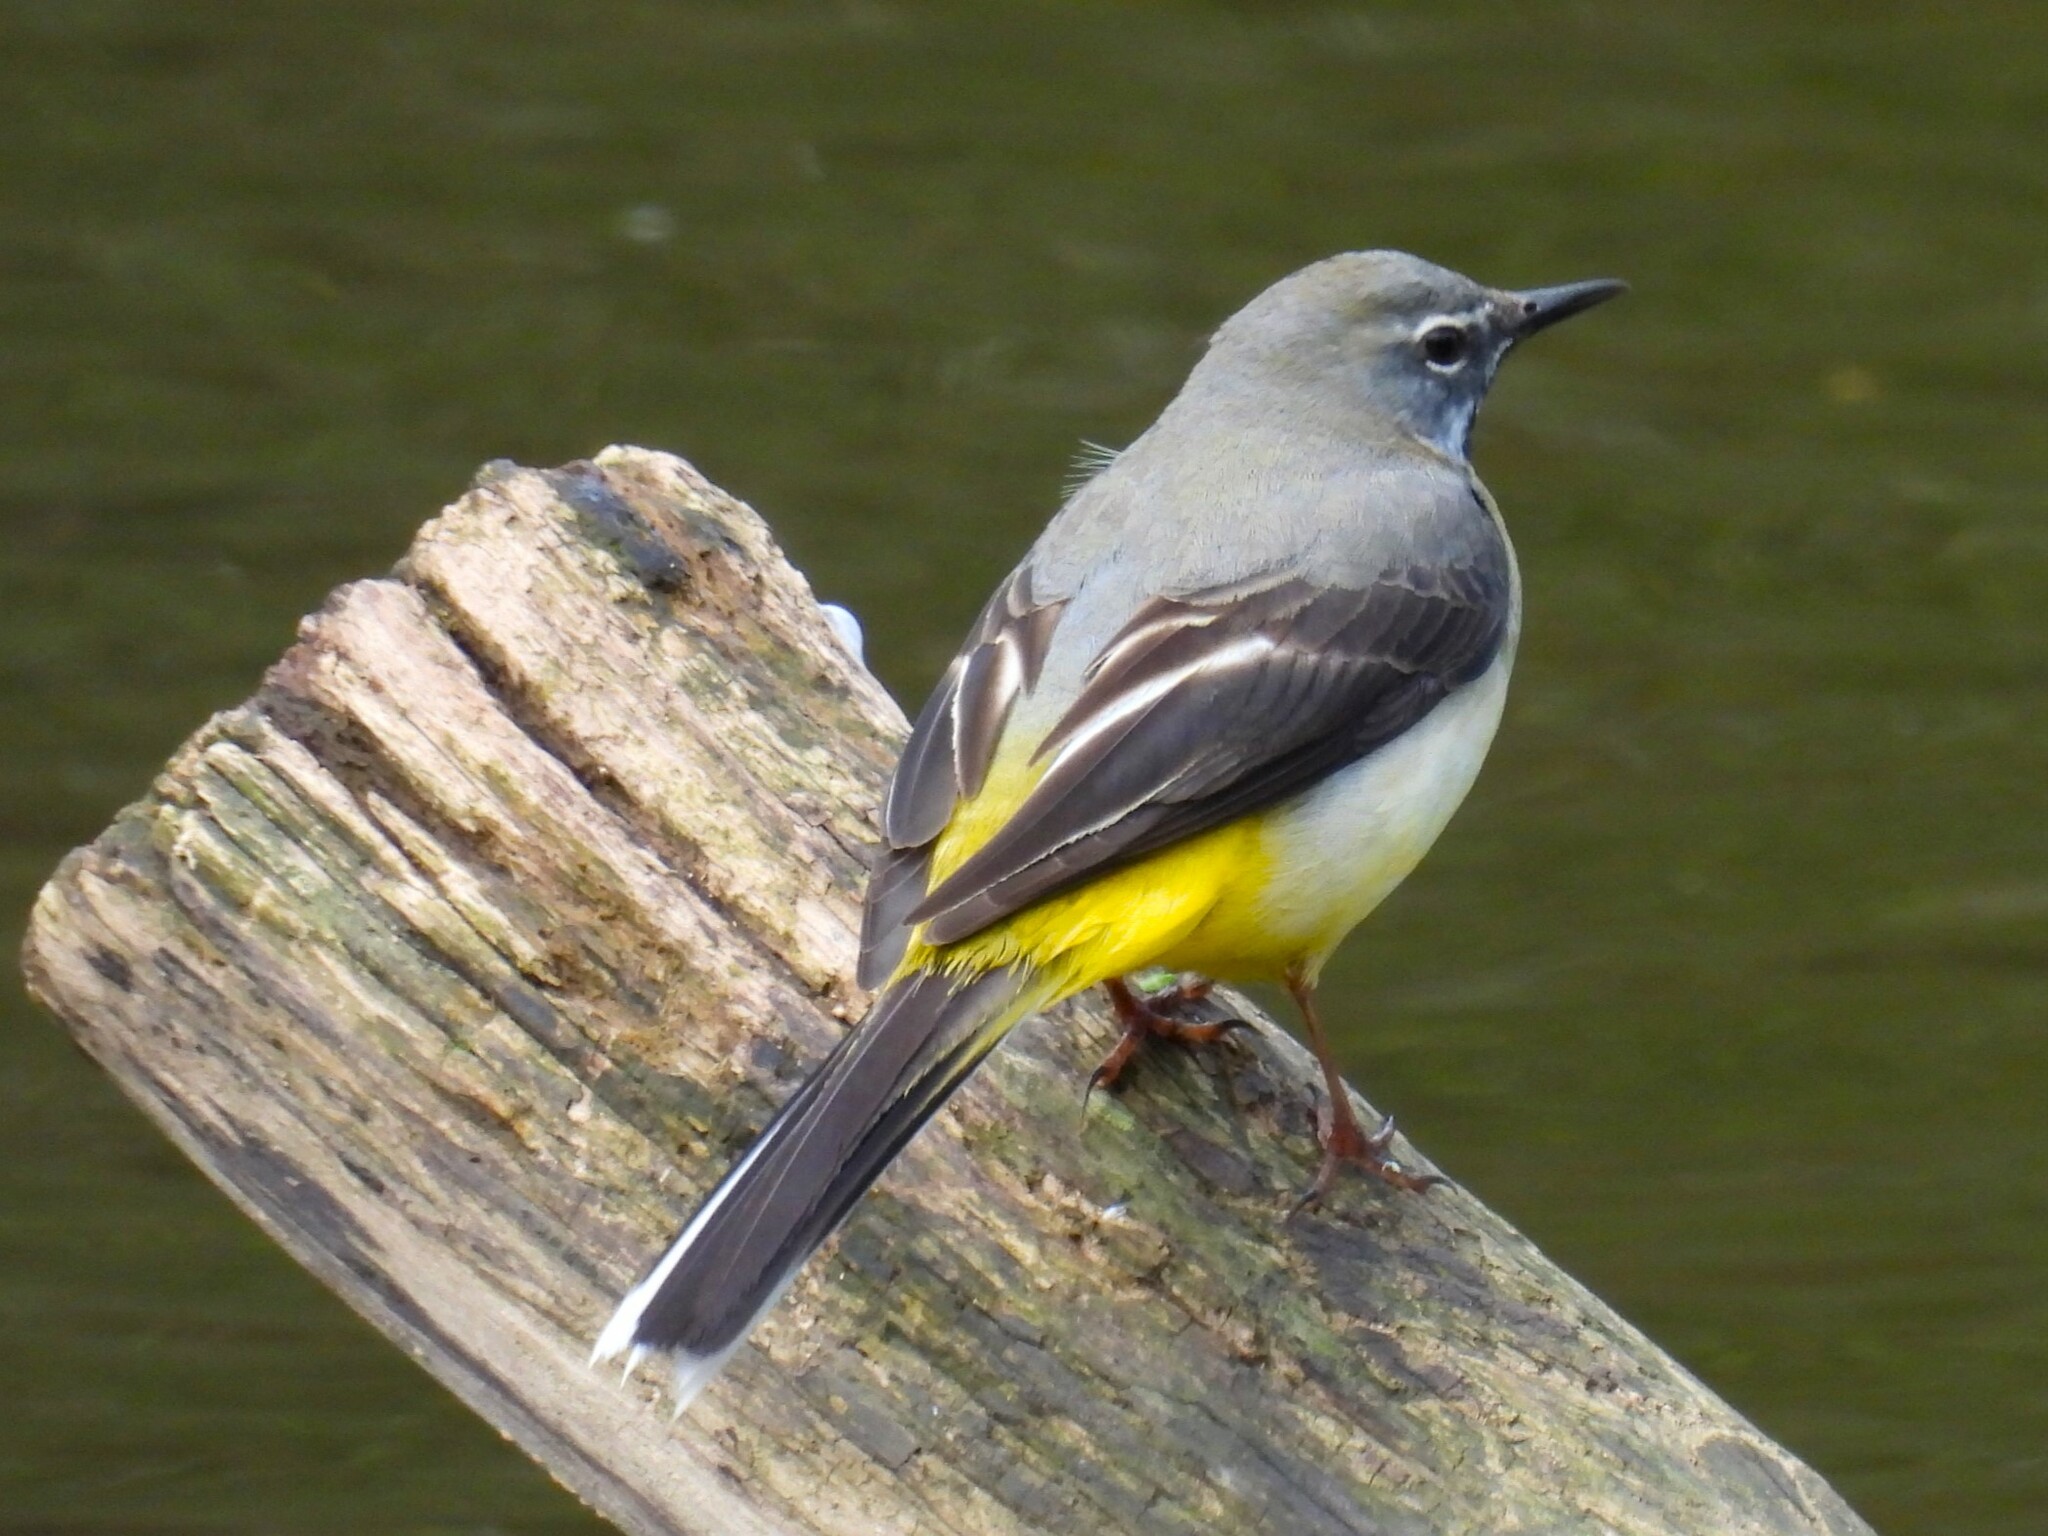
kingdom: Animalia
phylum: Chordata
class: Aves
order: Passeriformes
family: Motacillidae
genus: Motacilla
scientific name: Motacilla cinerea
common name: Grey wagtail
